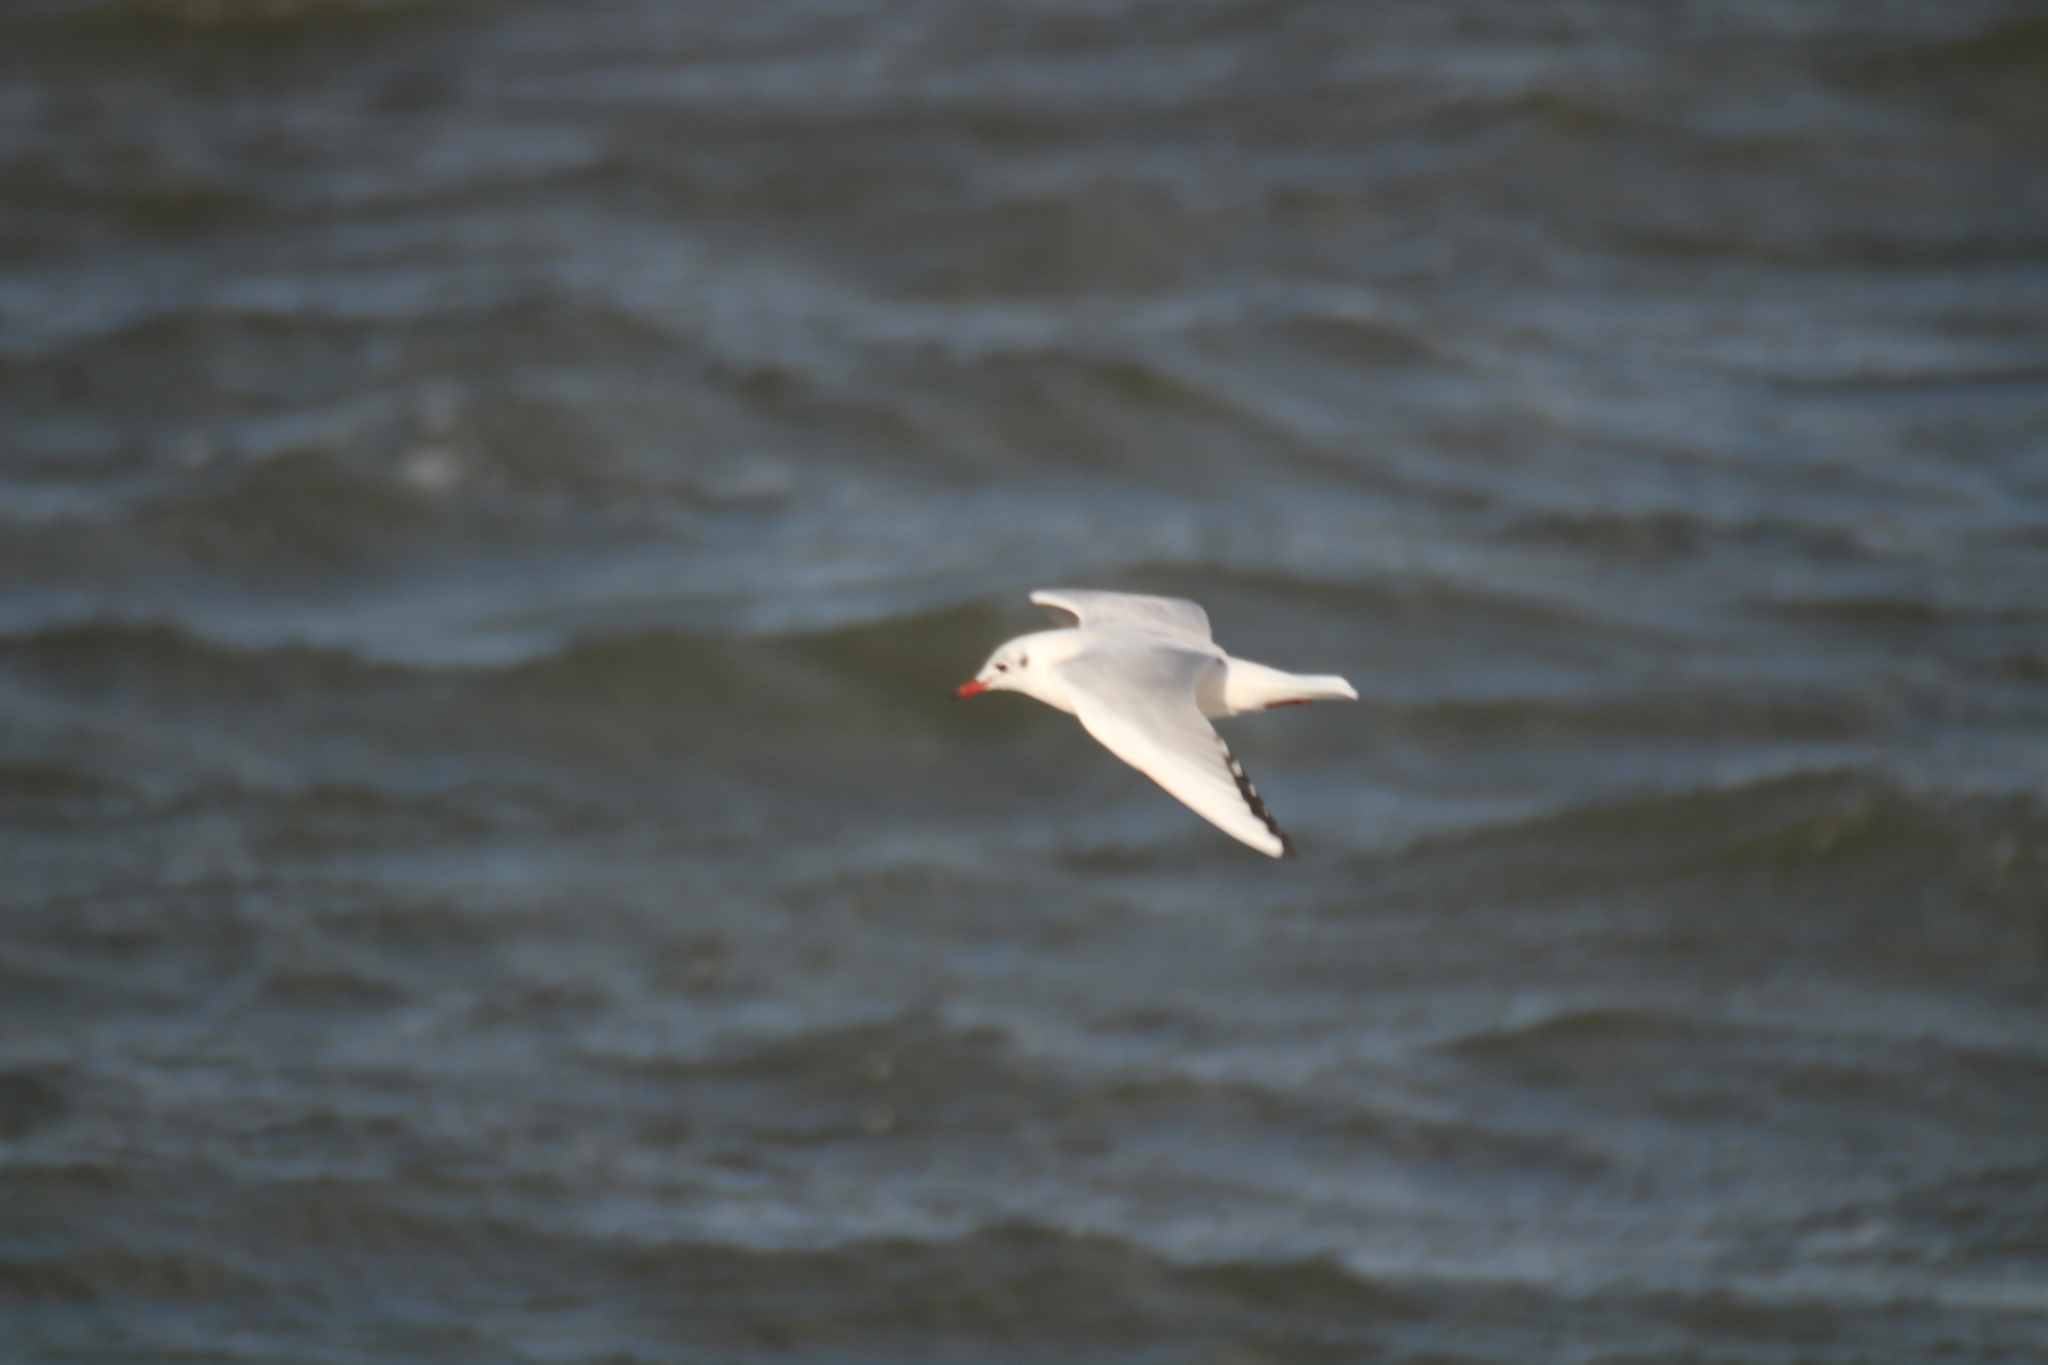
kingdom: Animalia
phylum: Chordata
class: Aves
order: Charadriiformes
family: Laridae
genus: Chroicocephalus
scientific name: Chroicocephalus ridibundus
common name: Black-headed gull
